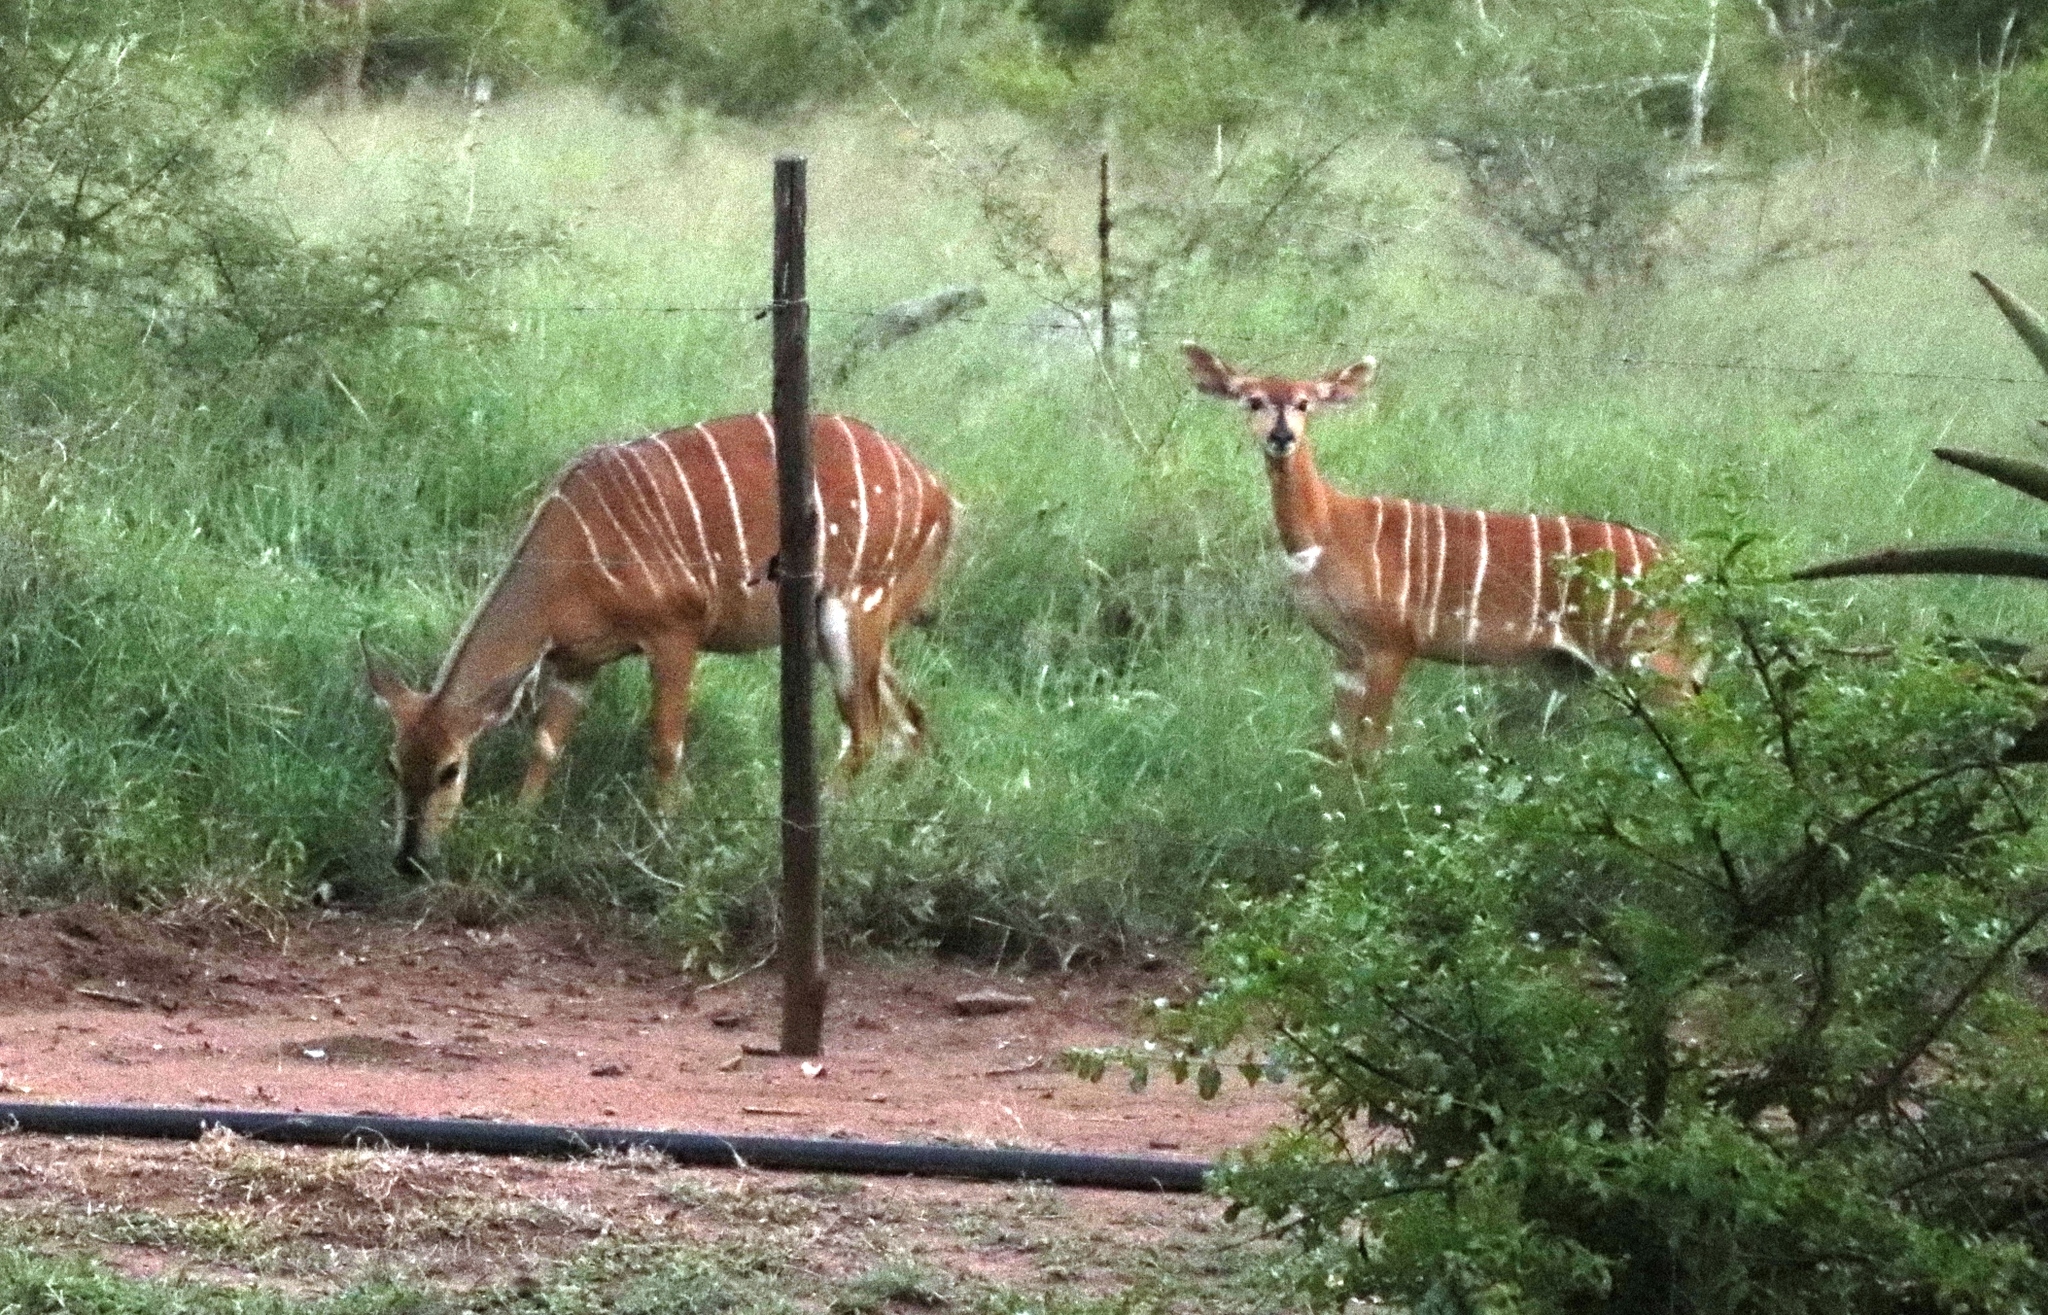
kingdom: Animalia
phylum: Chordata
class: Mammalia
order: Artiodactyla
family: Bovidae
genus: Tragelaphus
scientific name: Tragelaphus angasii
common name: Nyala
